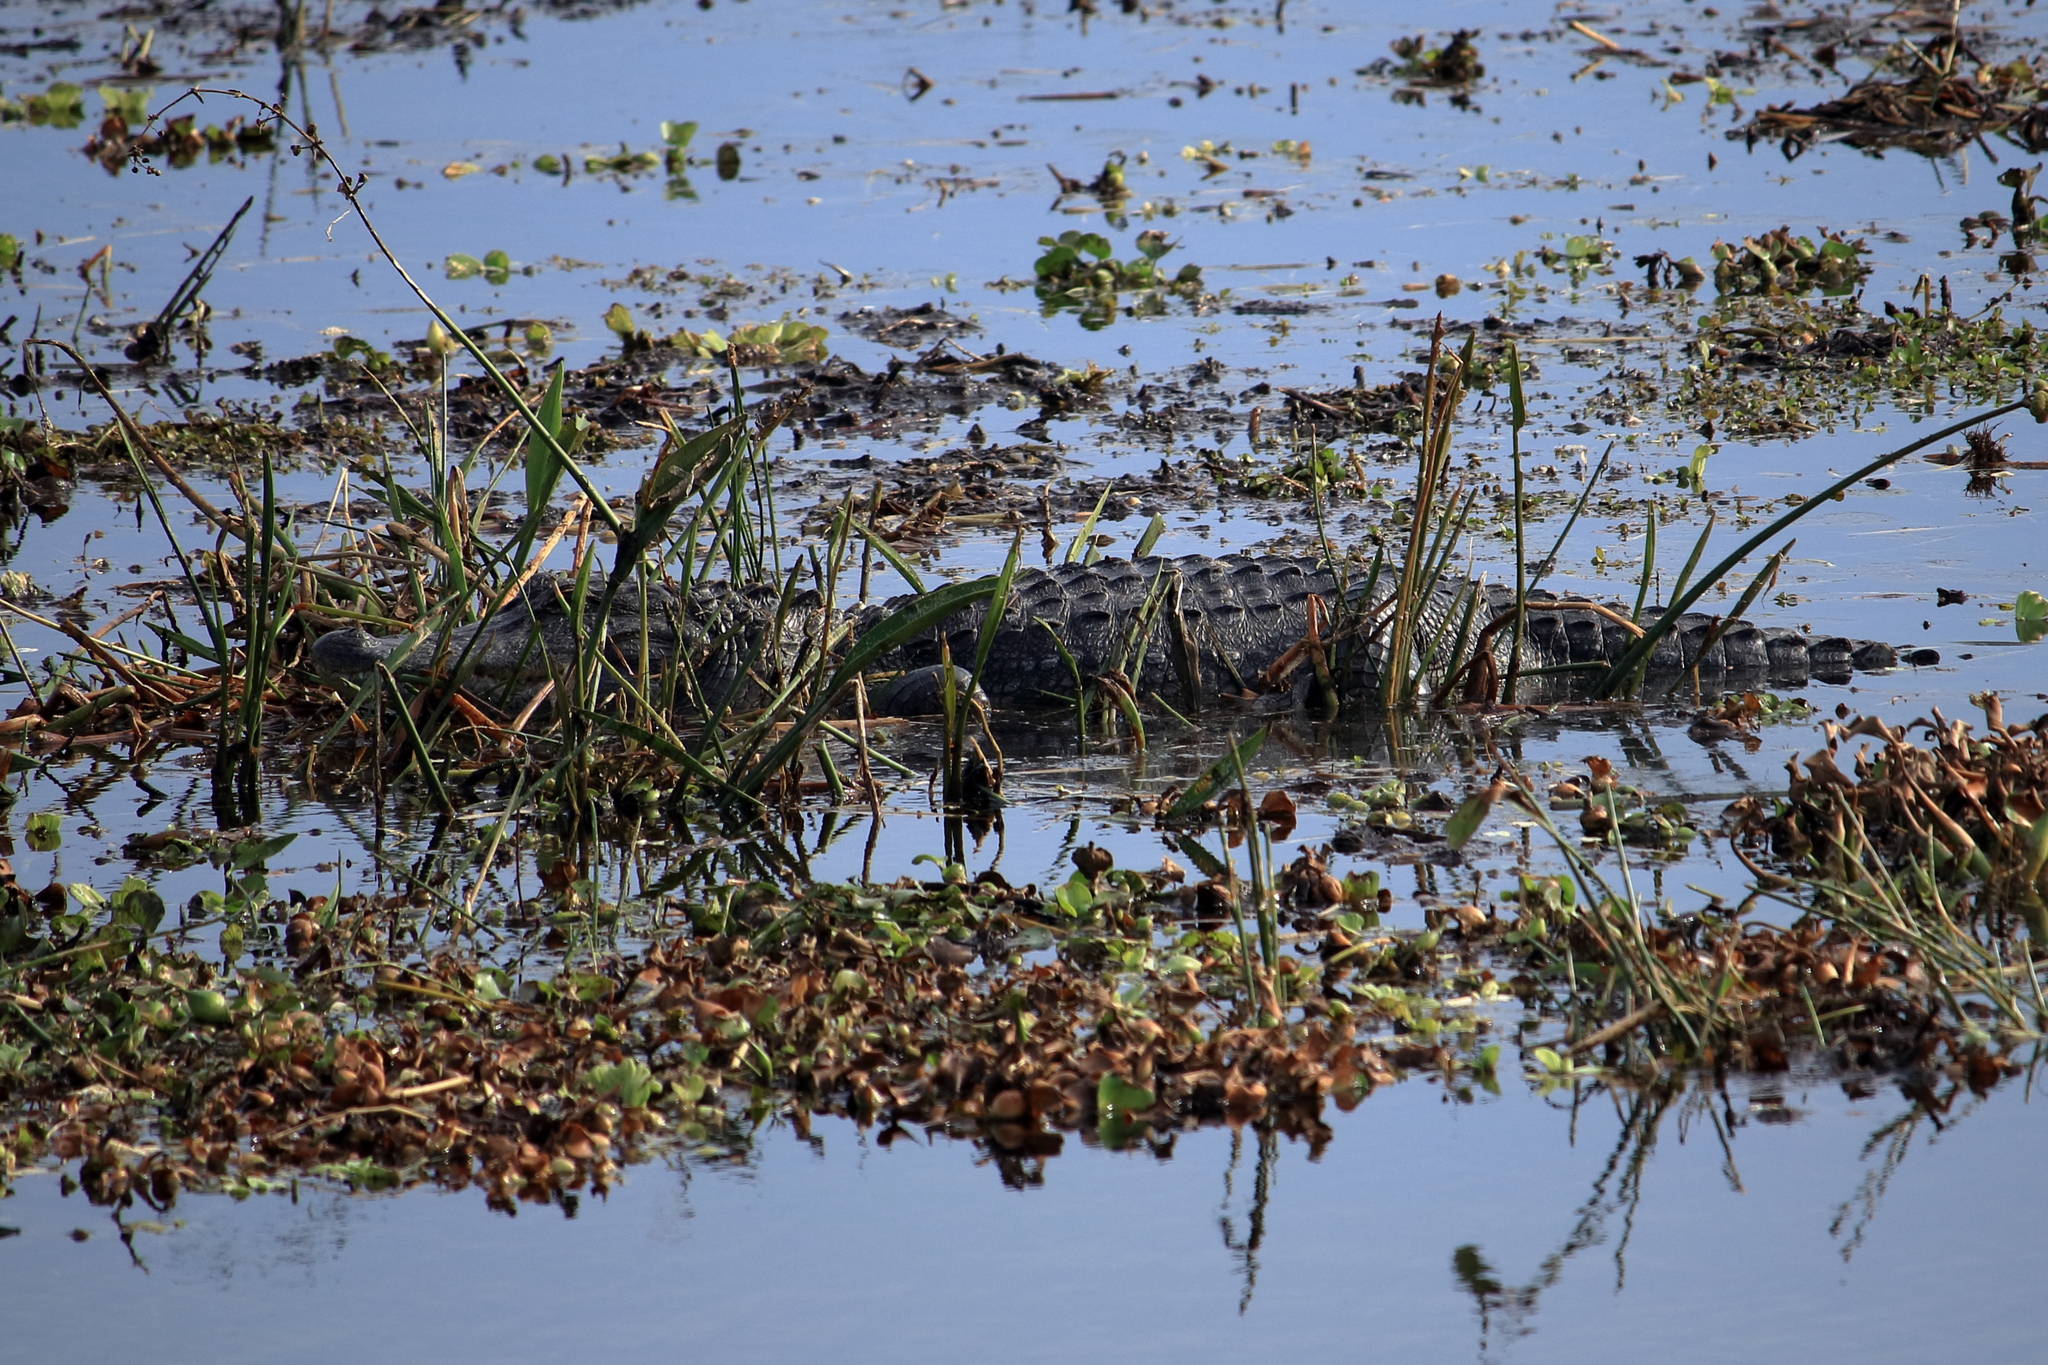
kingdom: Animalia
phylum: Chordata
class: Crocodylia
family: Alligatoridae
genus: Alligator
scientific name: Alligator mississippiensis
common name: American alligator
